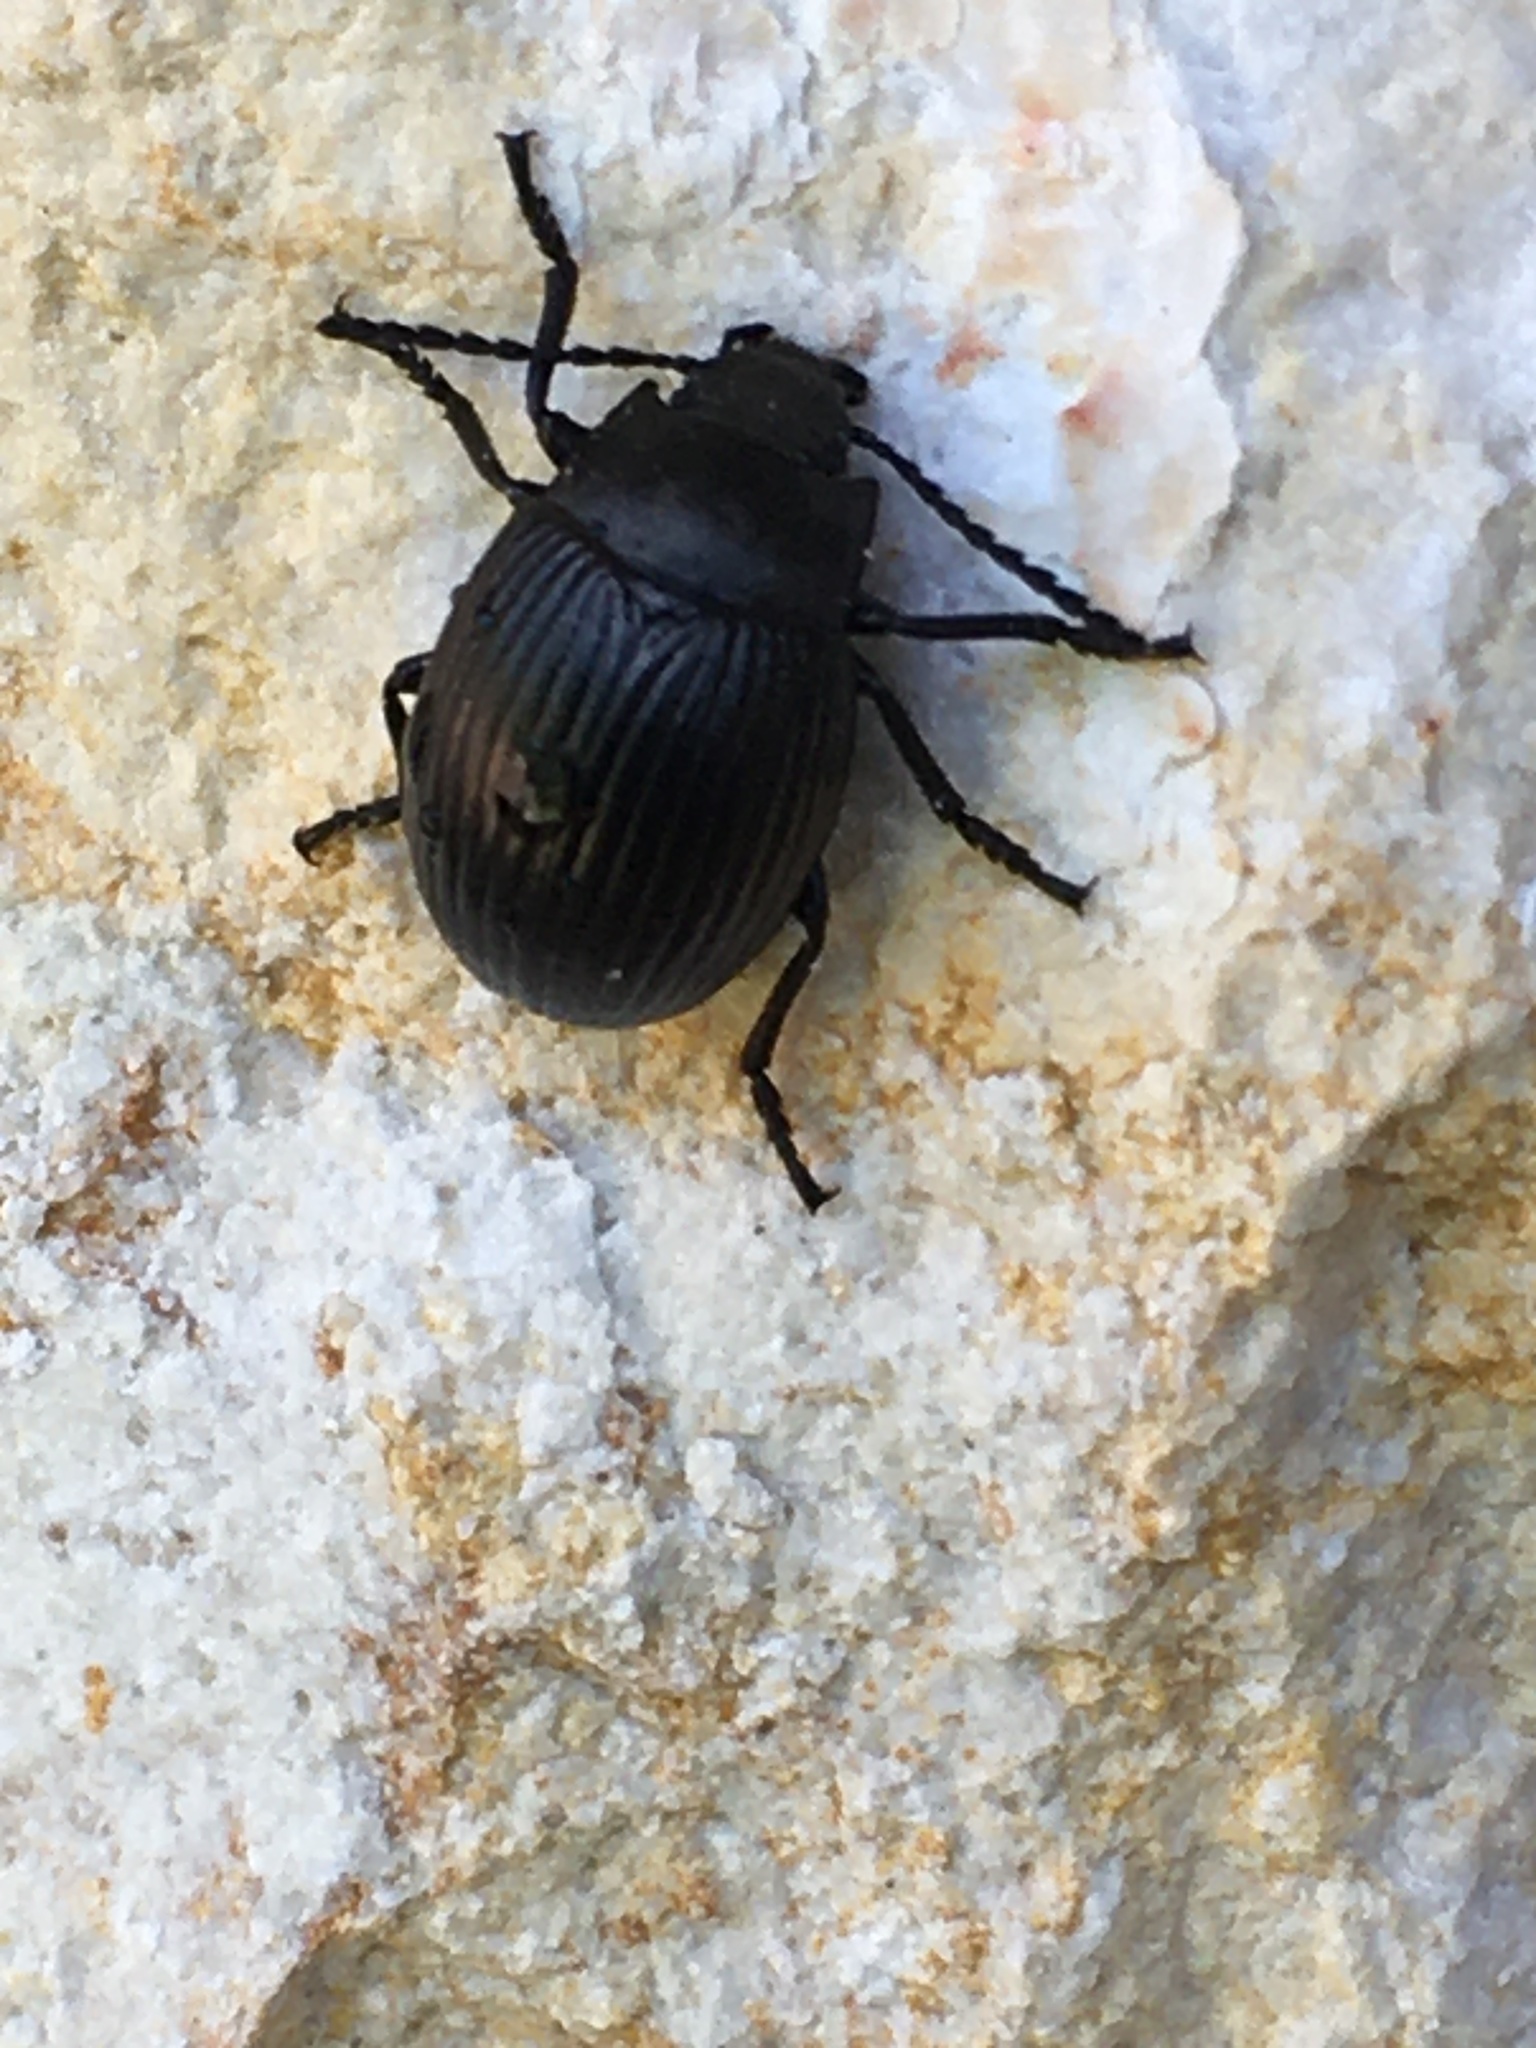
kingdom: Animalia
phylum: Arthropoda
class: Insecta
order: Coleoptera
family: Tenebrionidae
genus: Helops
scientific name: Helops farctus
